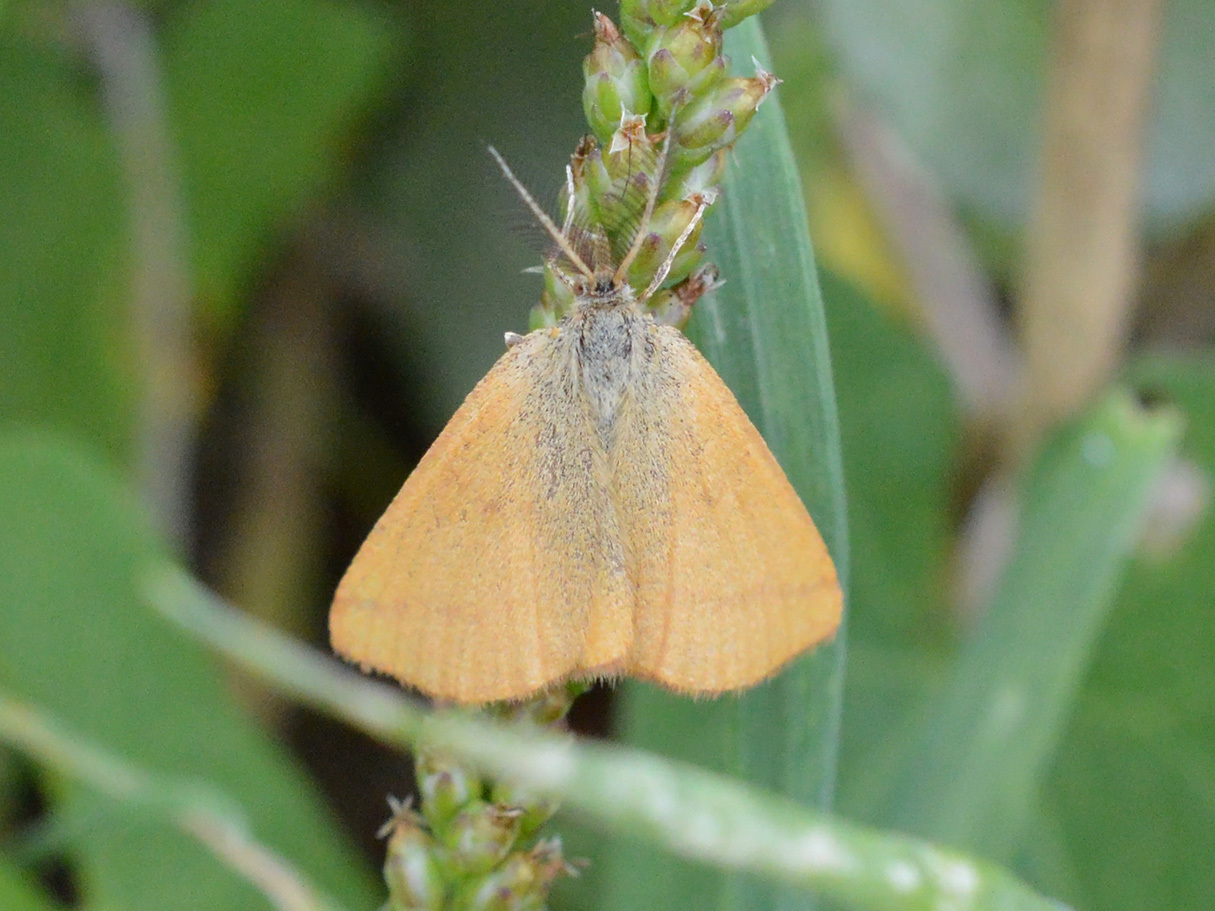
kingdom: Animalia
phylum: Arthropoda
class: Insecta
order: Lepidoptera
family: Geometridae
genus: Lythria
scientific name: Lythria purpuraria
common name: Purple-barred yellow
